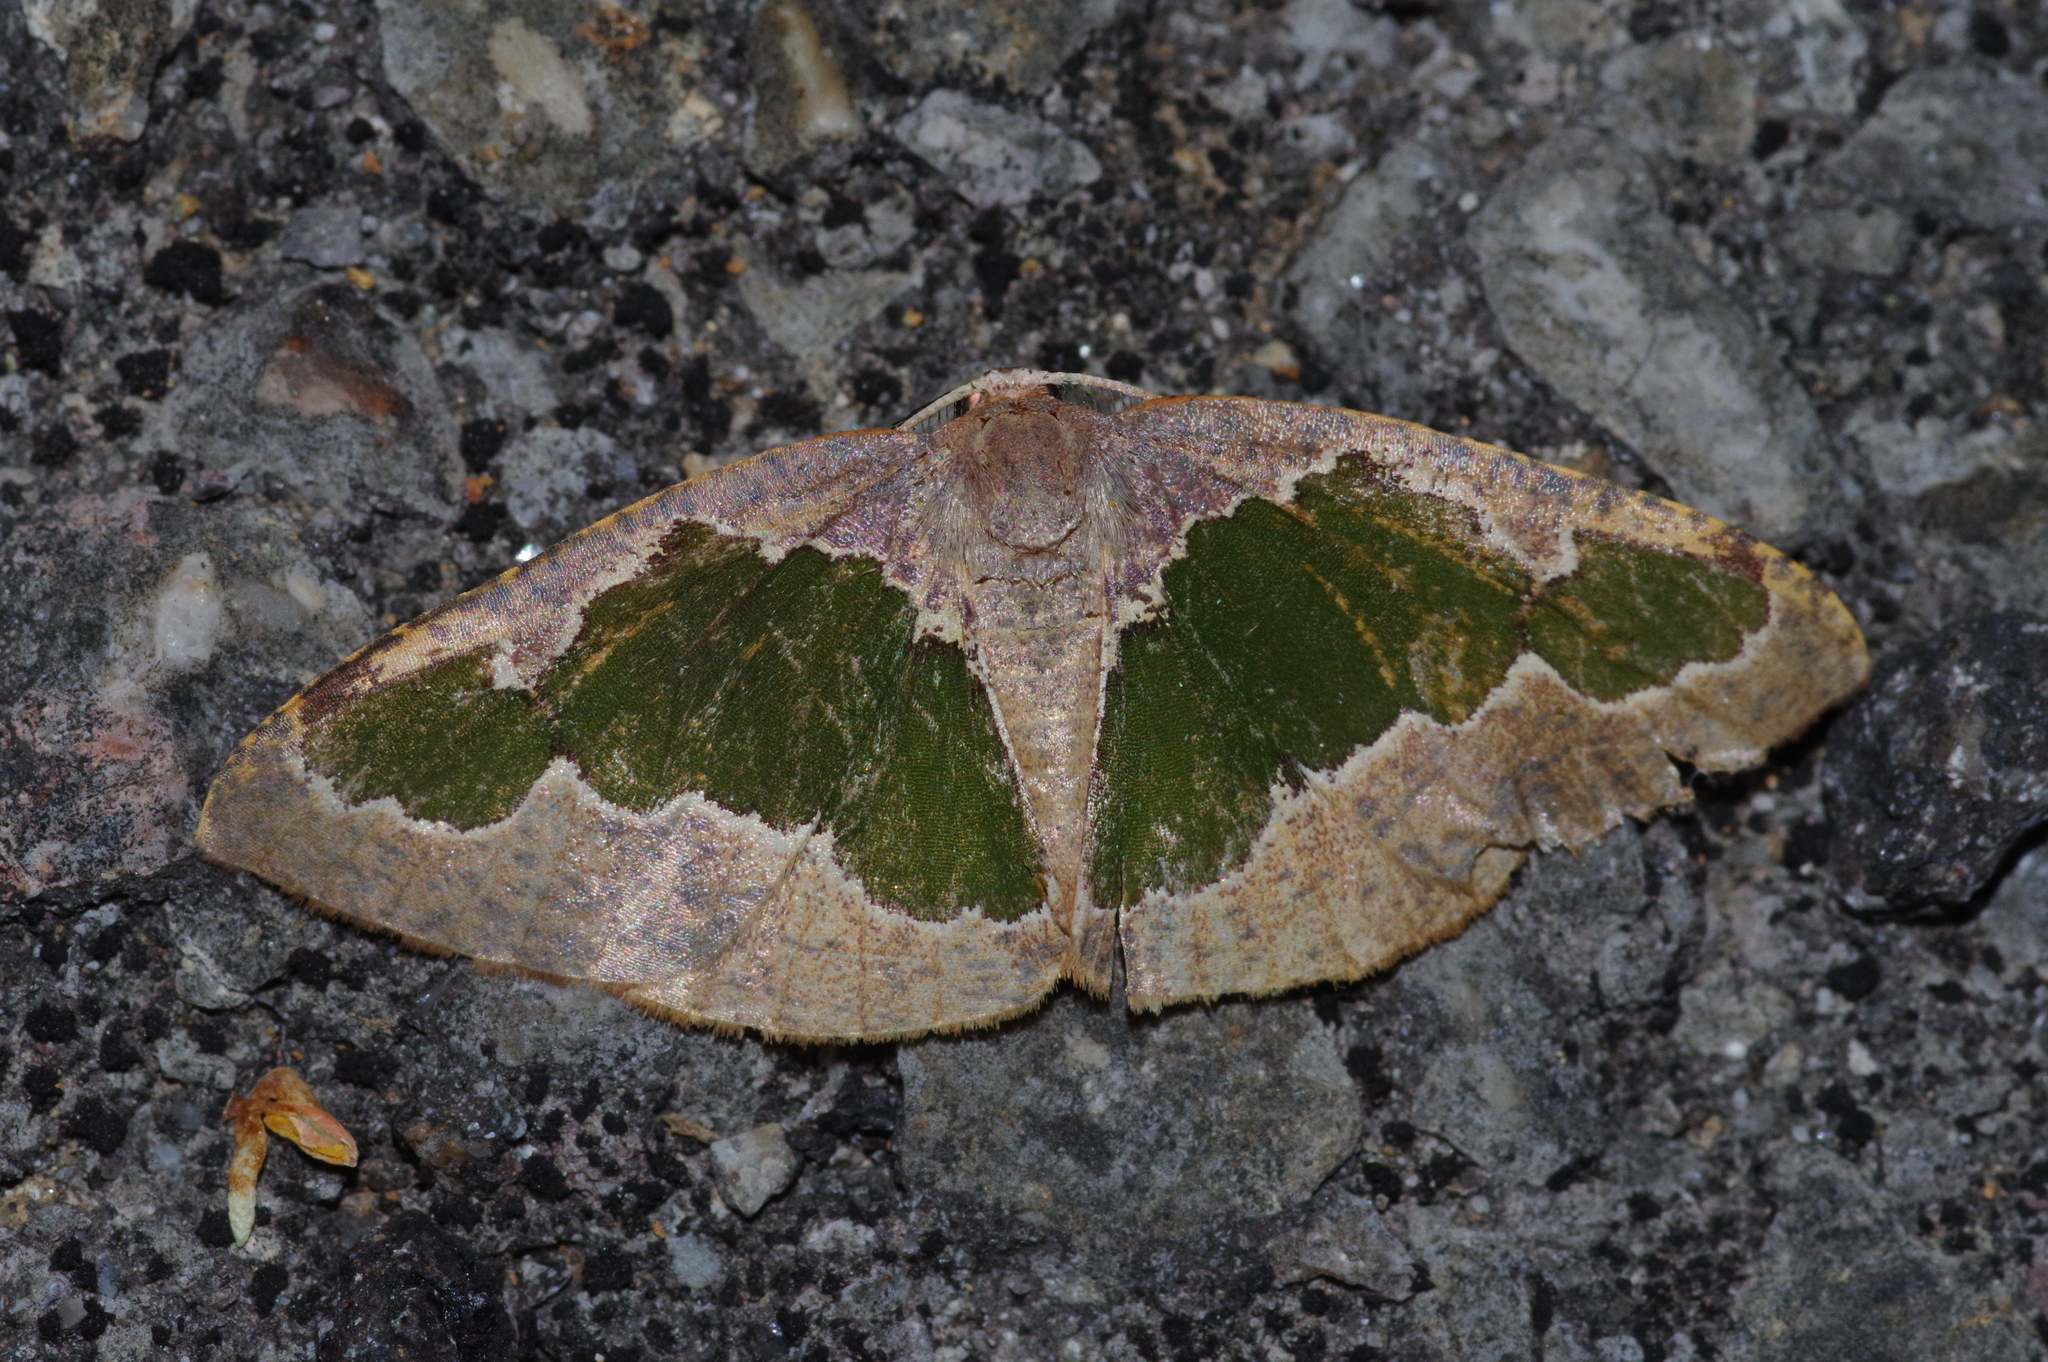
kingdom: Animalia
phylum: Arthropoda
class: Insecta
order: Lepidoptera
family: Geometridae
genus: Celenna
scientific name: Celenna festivaria
